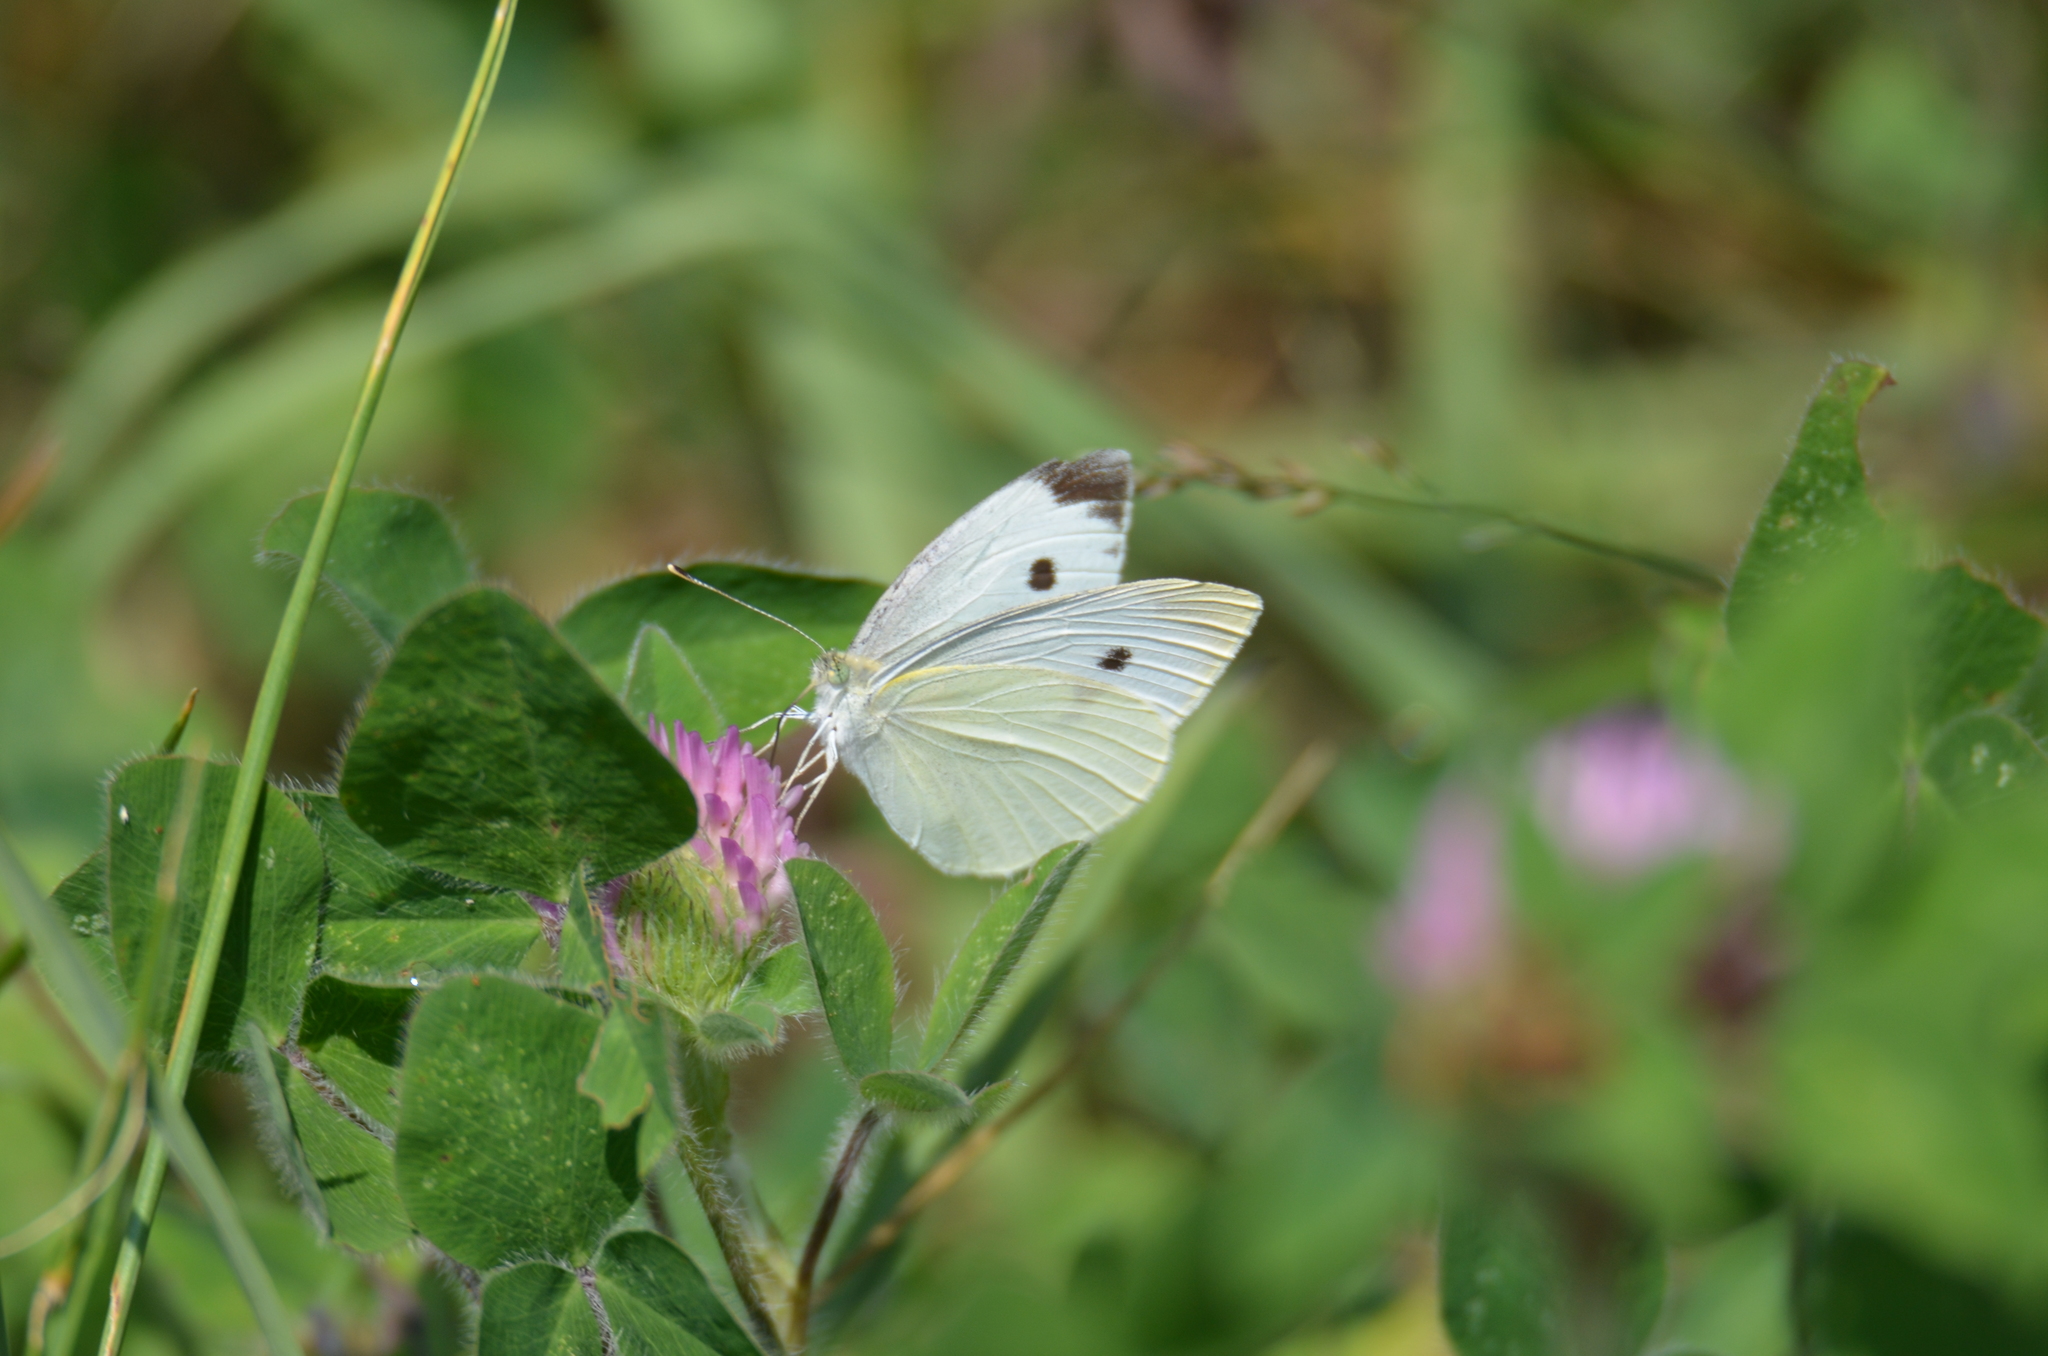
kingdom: Animalia
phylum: Arthropoda
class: Insecta
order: Lepidoptera
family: Pieridae
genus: Pieris
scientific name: Pieris rapae
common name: Small white
